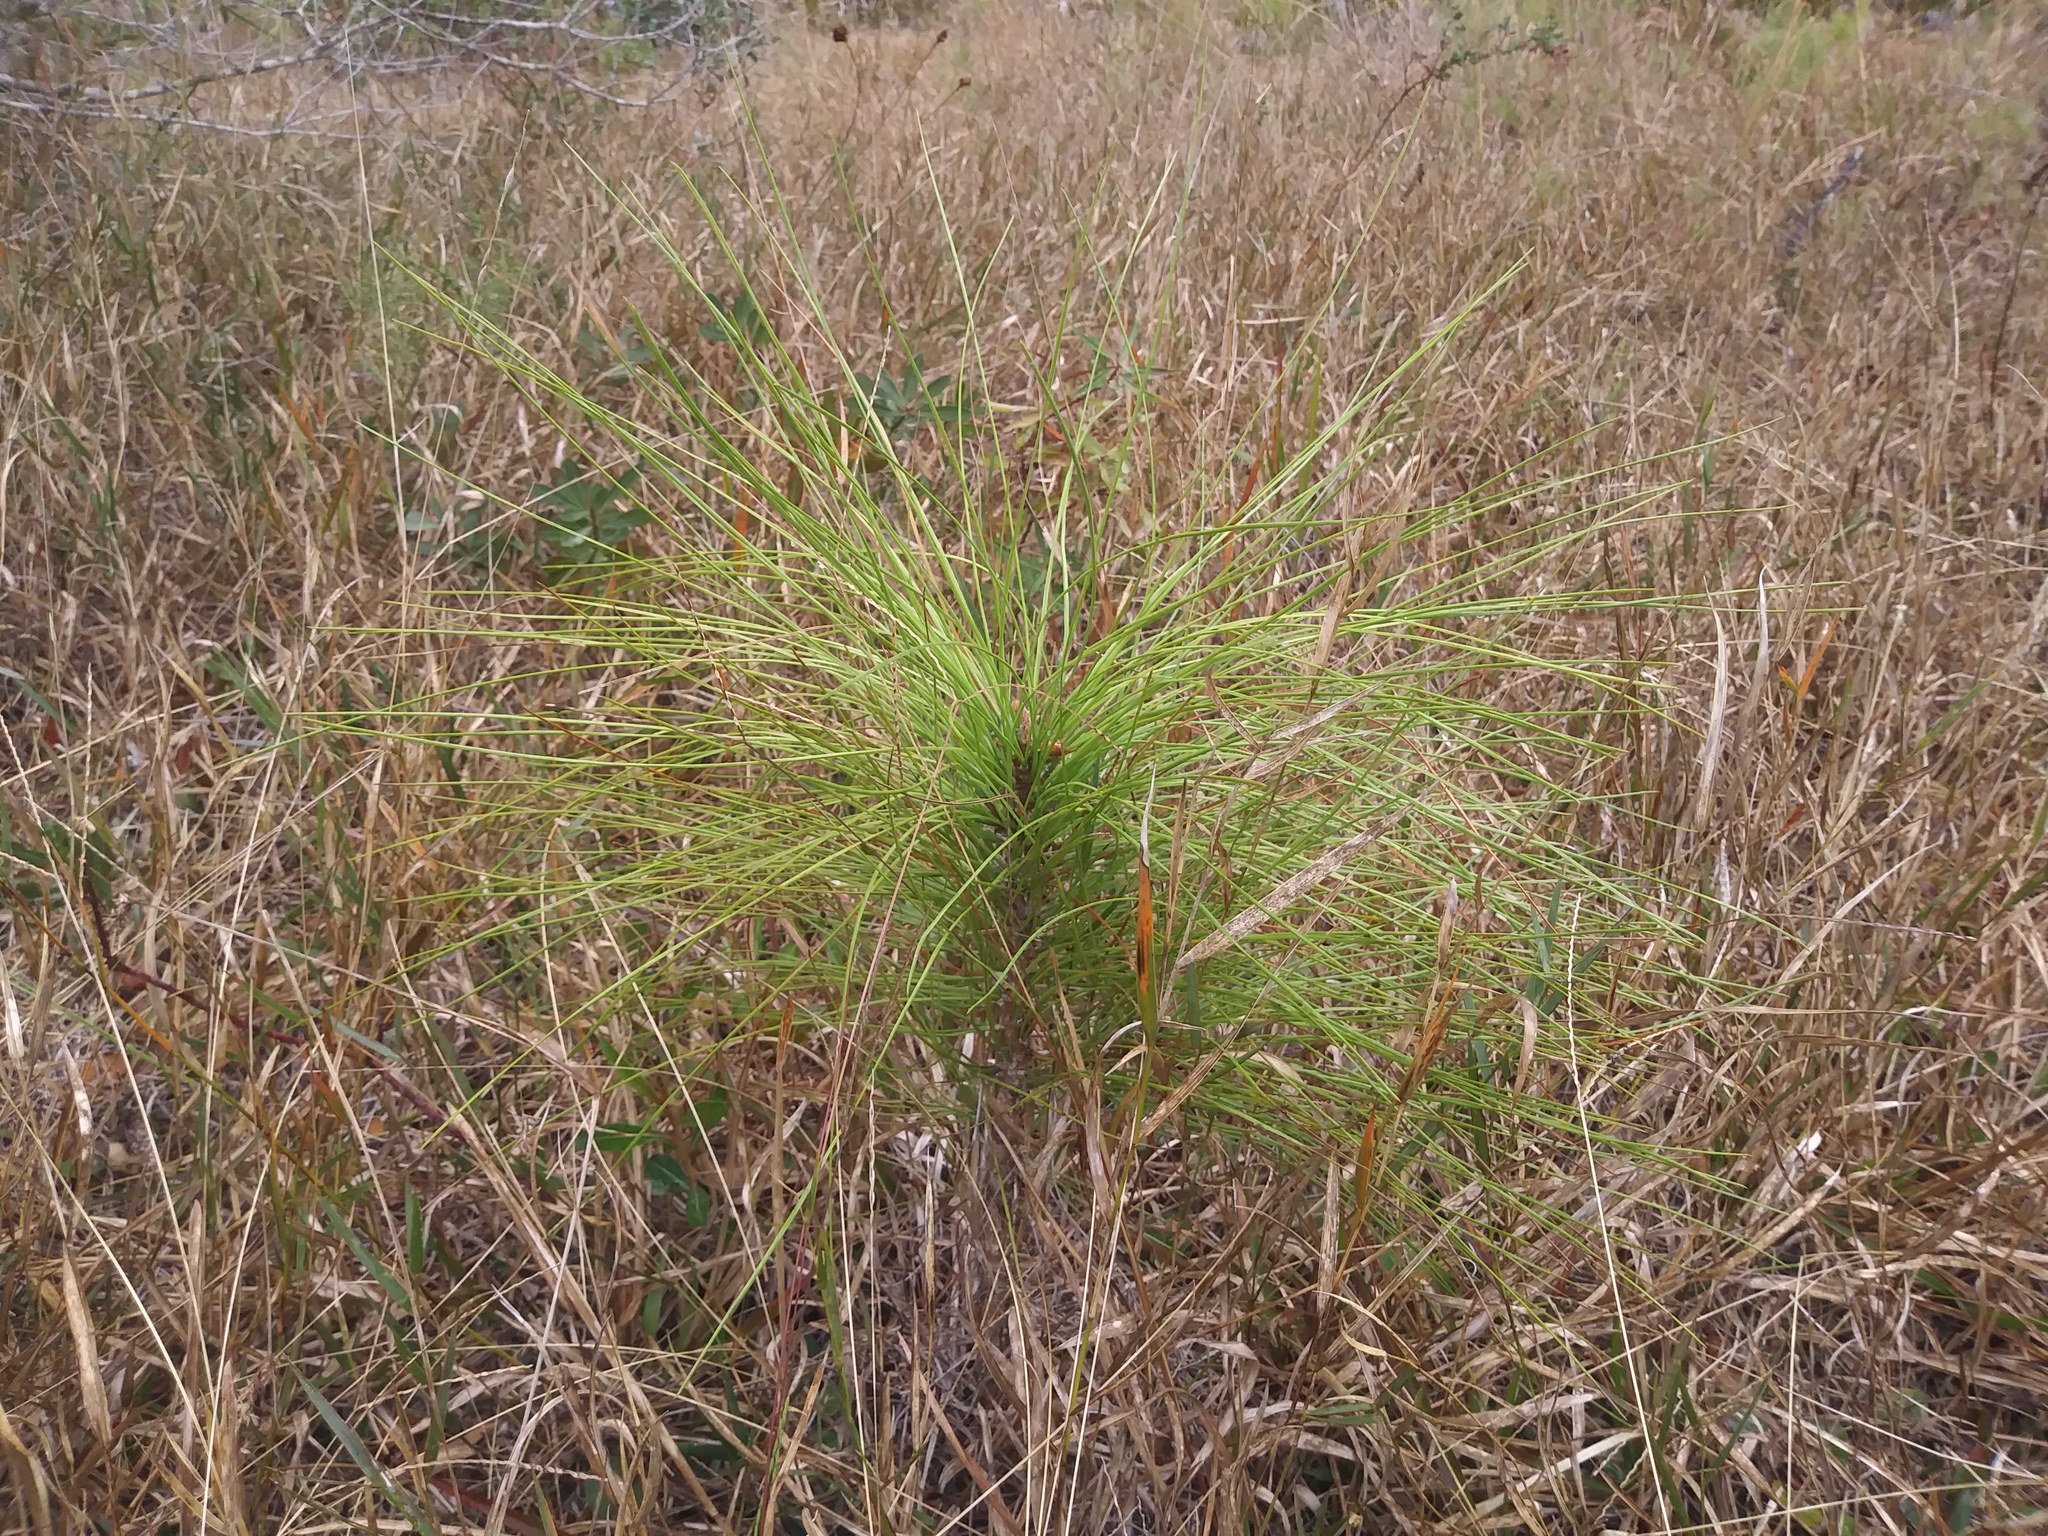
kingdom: Plantae
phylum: Tracheophyta
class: Pinopsida
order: Pinales
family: Pinaceae
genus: Pinus
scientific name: Pinus palustris
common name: Longleaf pine
